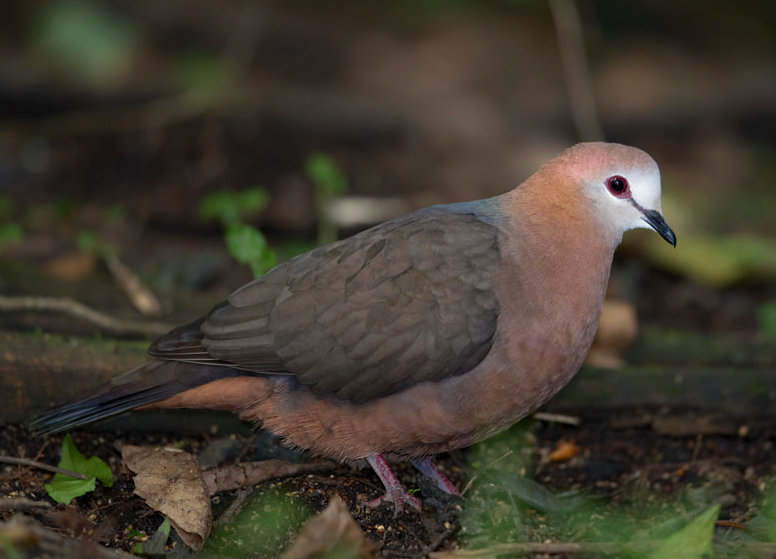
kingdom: Animalia
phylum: Chordata
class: Aves
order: Columbiformes
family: Columbidae
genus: Columba
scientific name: Columba larvata
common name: Lemon dove
